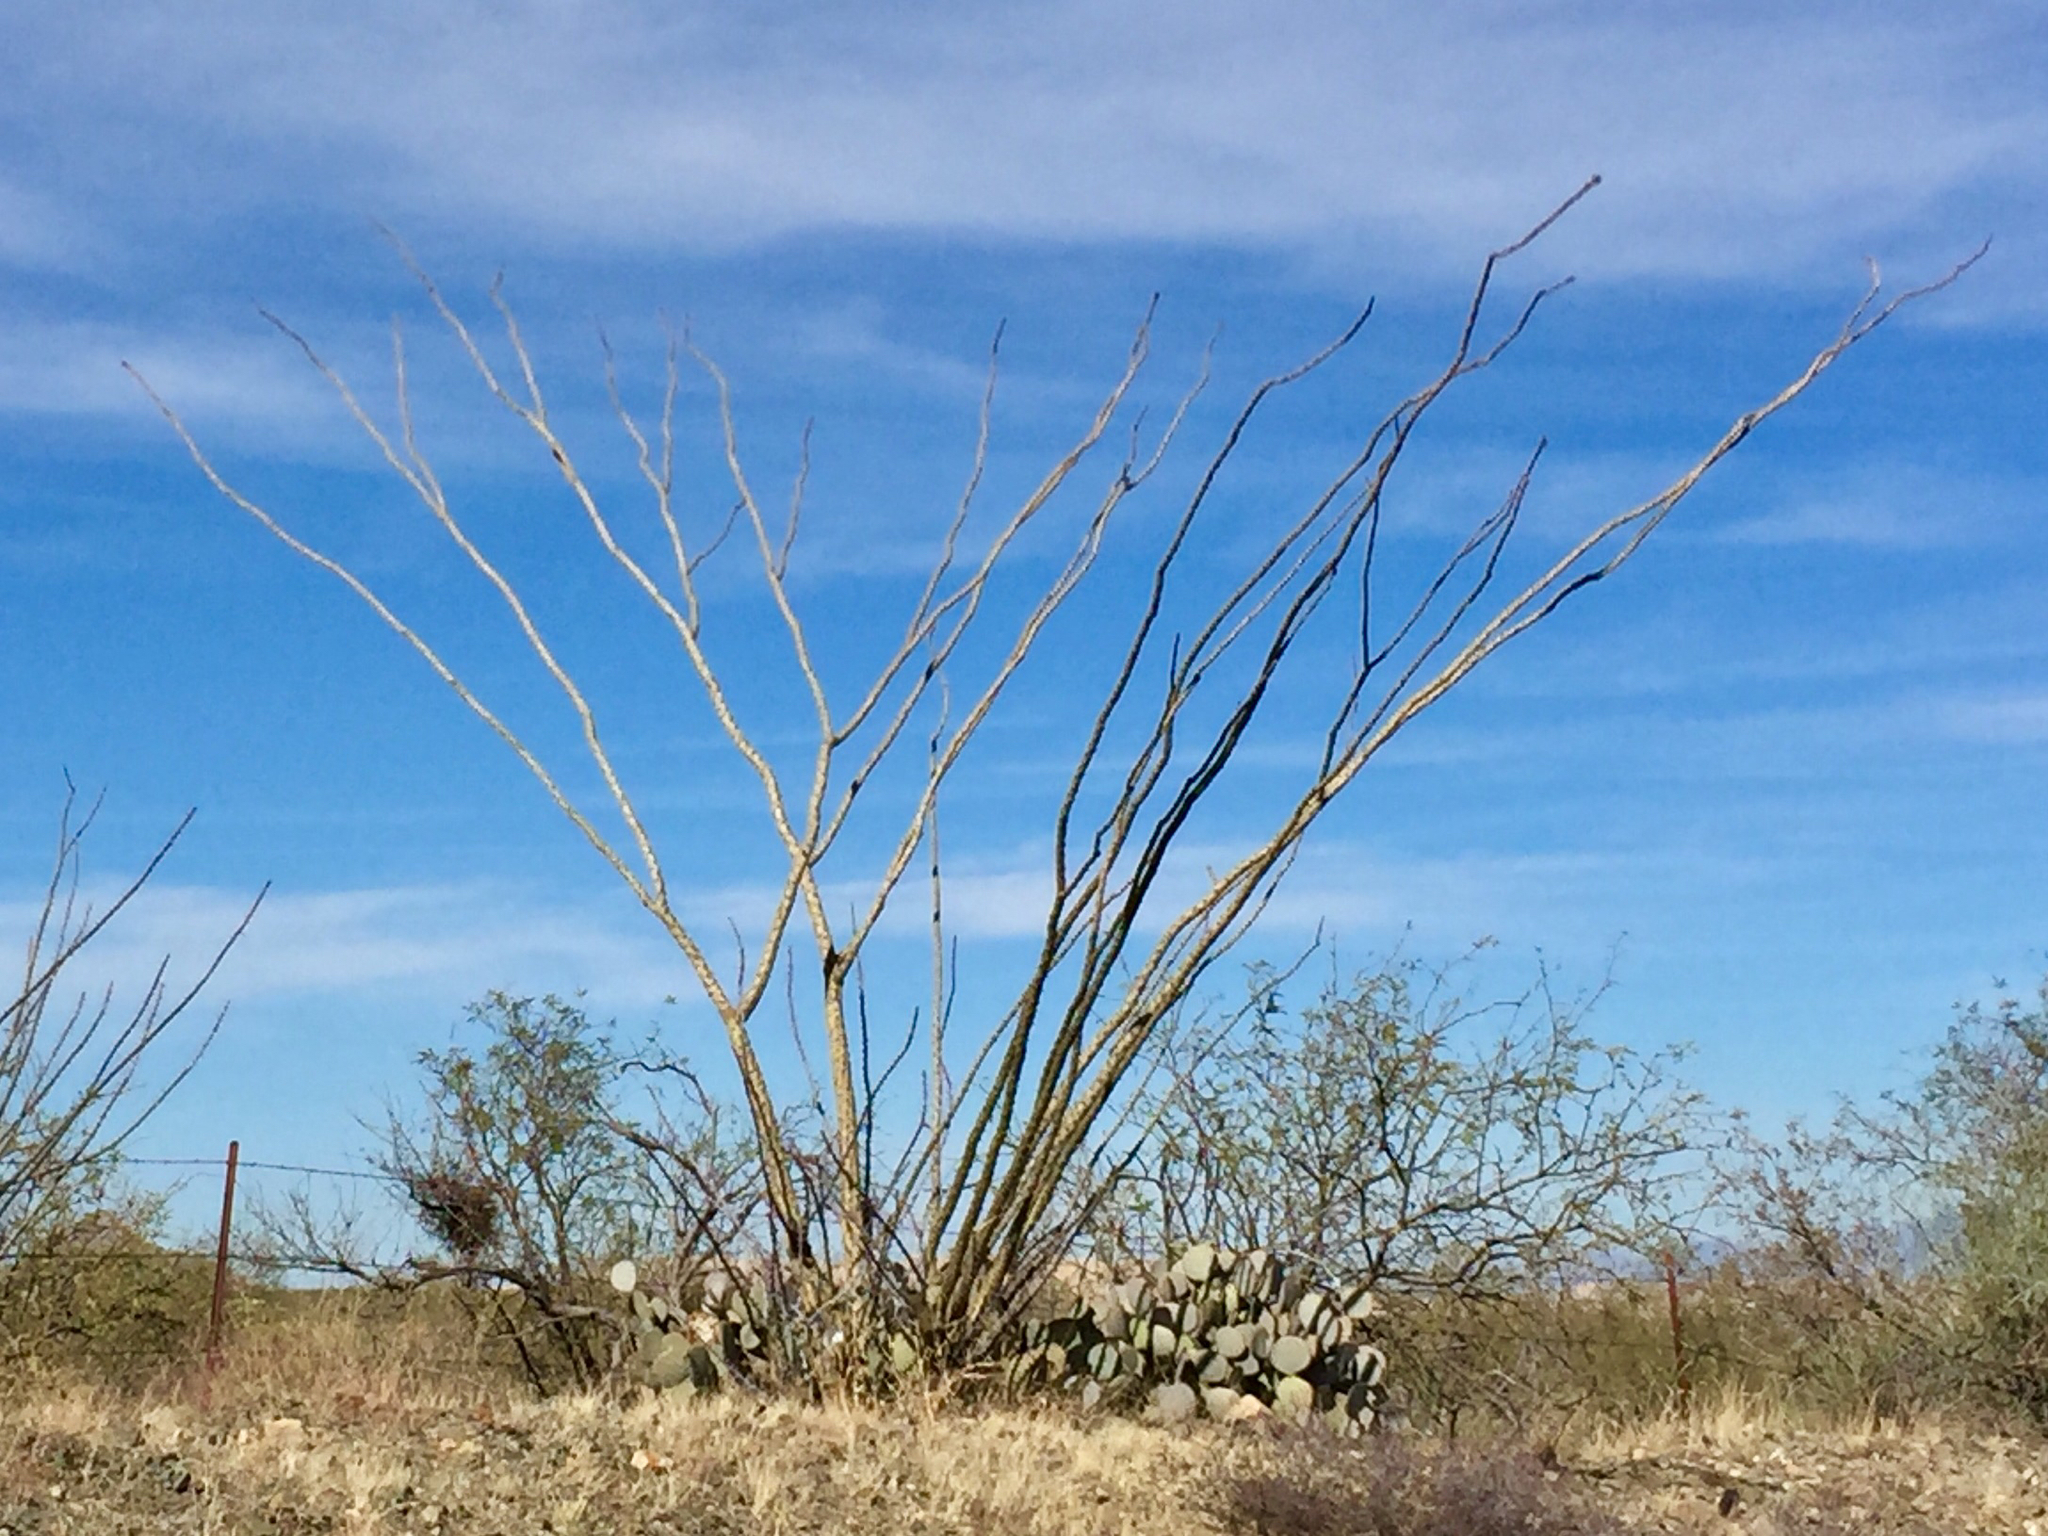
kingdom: Plantae
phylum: Tracheophyta
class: Magnoliopsida
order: Ericales
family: Fouquieriaceae
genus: Fouquieria
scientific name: Fouquieria splendens
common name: Vine-cactus
